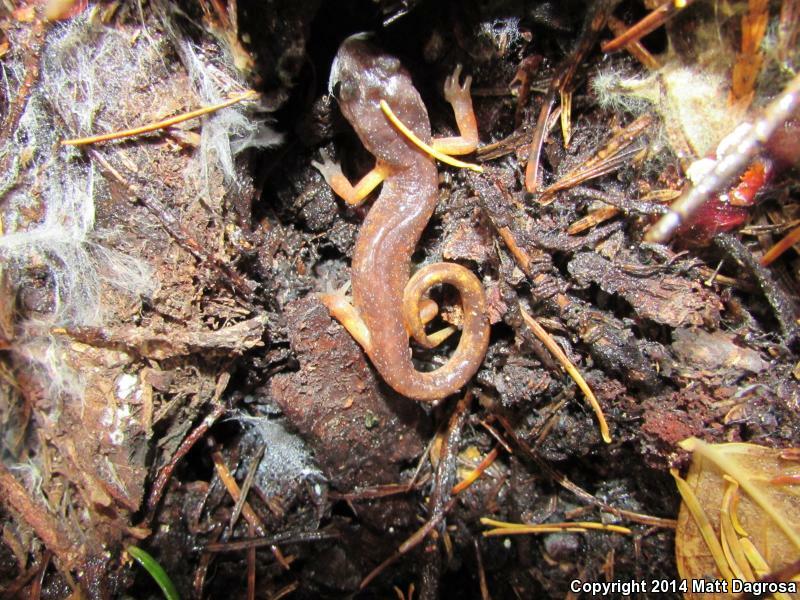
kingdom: Animalia
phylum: Chordata
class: Amphibia
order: Caudata
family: Plethodontidae
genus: Ensatina
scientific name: Ensatina eschscholtzii
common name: Ensatina
